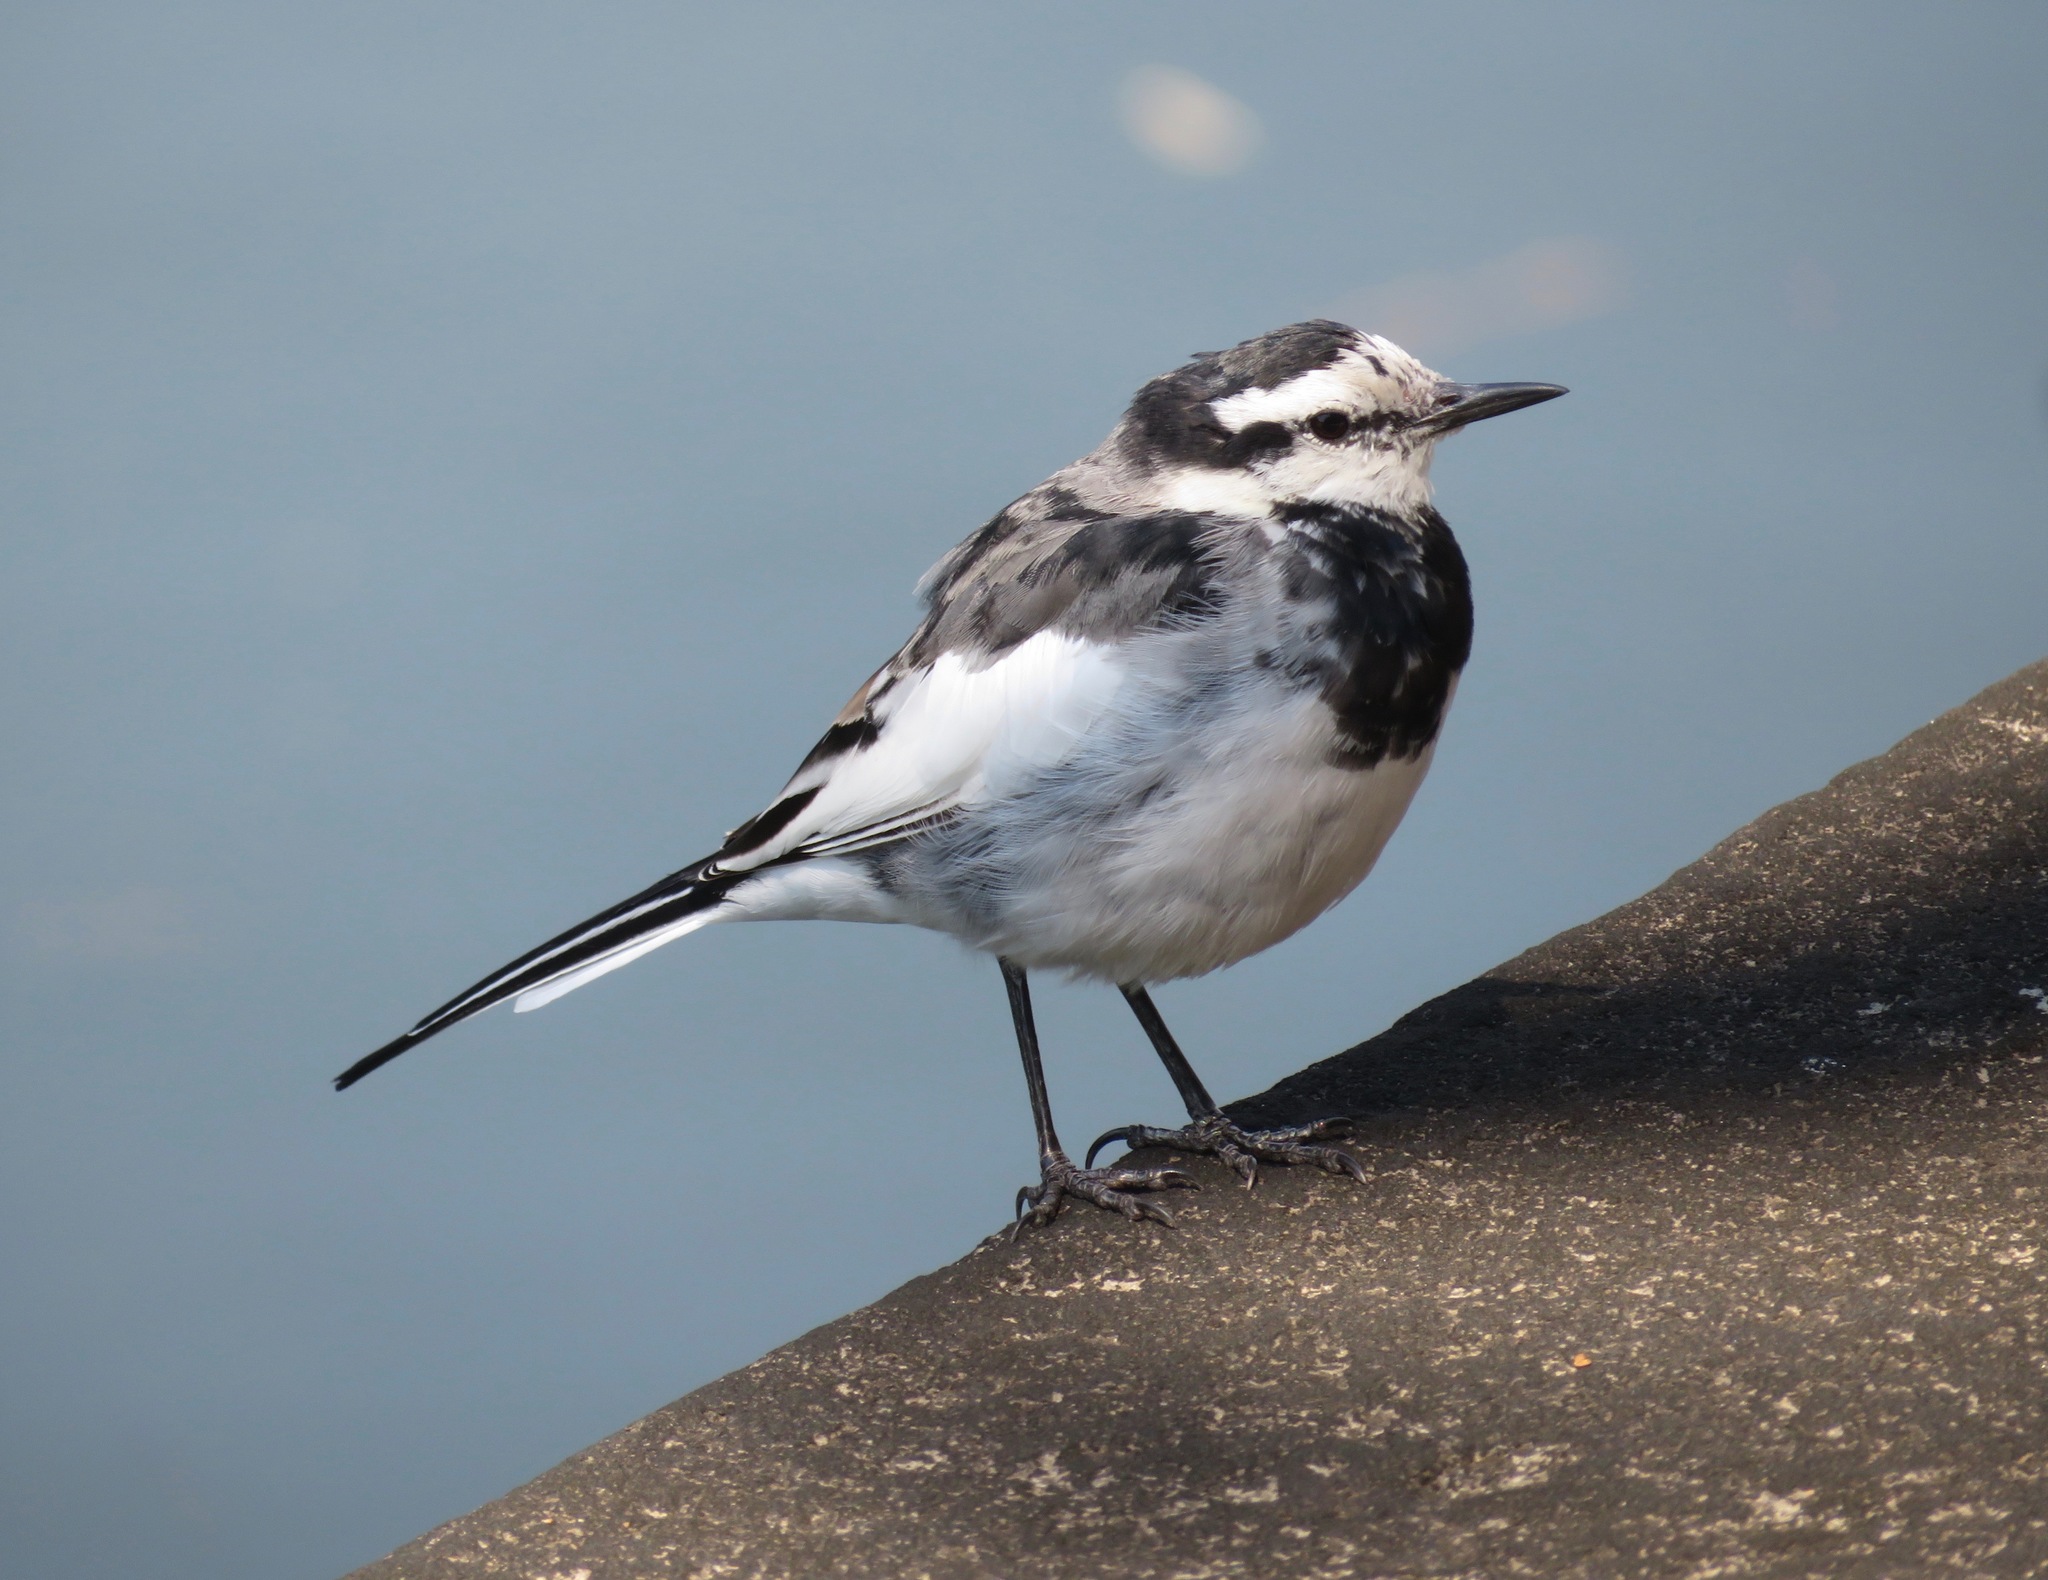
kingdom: Animalia
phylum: Chordata
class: Aves
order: Passeriformes
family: Motacillidae
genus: Motacilla
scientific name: Motacilla alba
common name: White wagtail
